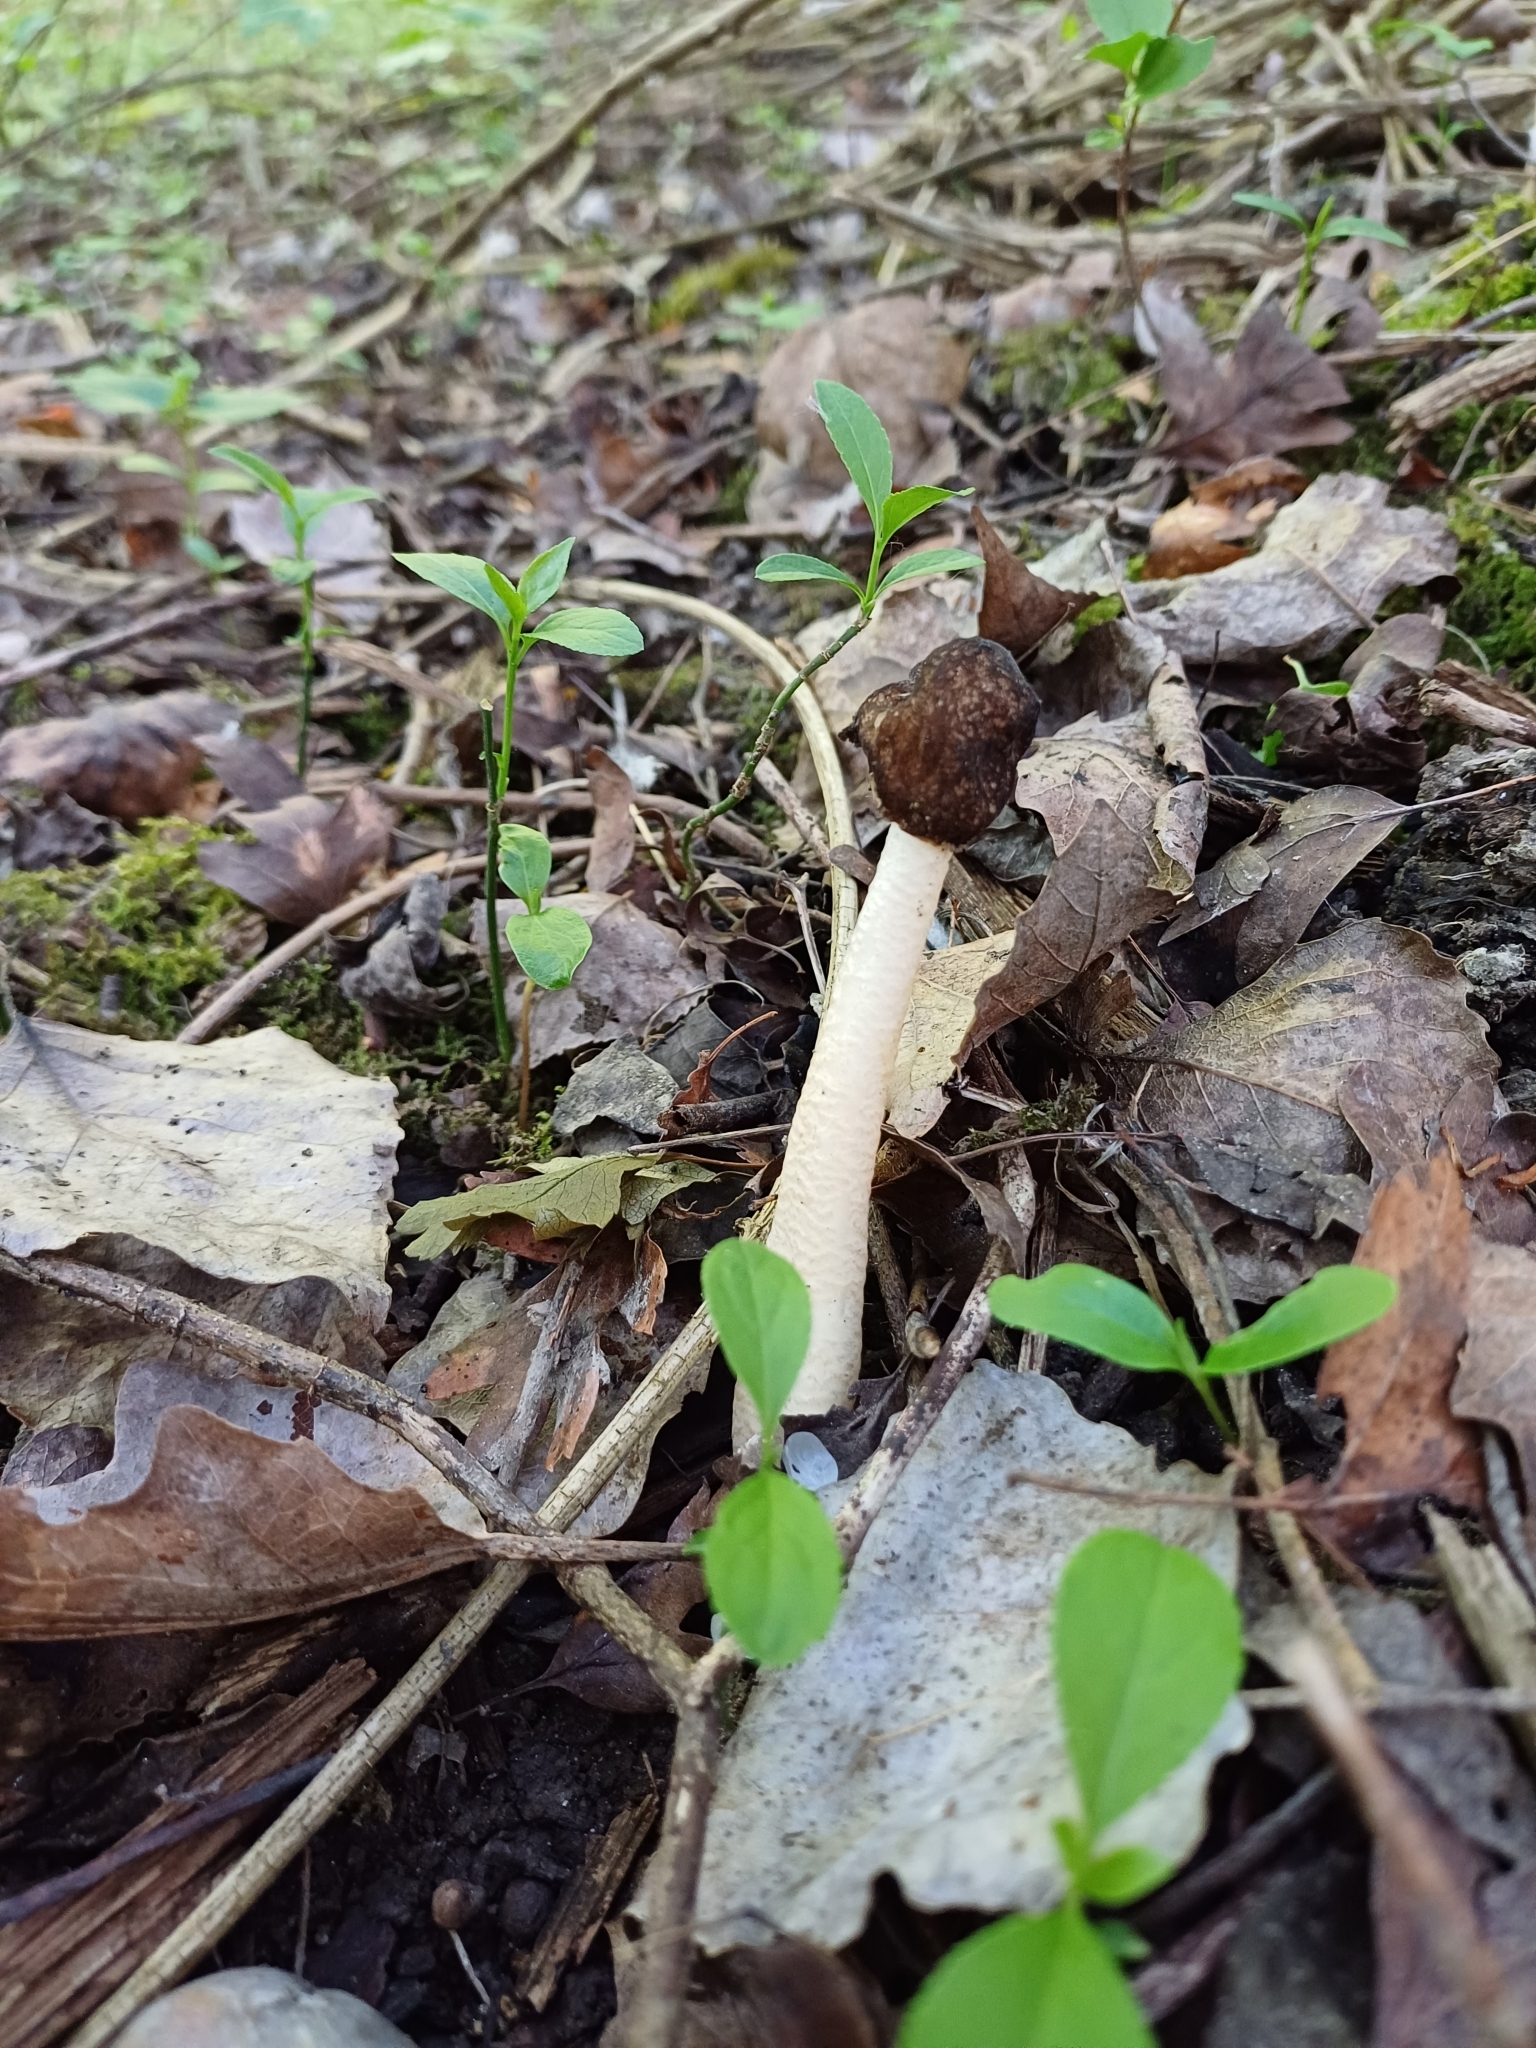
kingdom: Fungi
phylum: Ascomycota
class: Pezizomycetes
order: Pezizales
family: Morchellaceae
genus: Verpa
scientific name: Verpa conica
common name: Thimble morel
